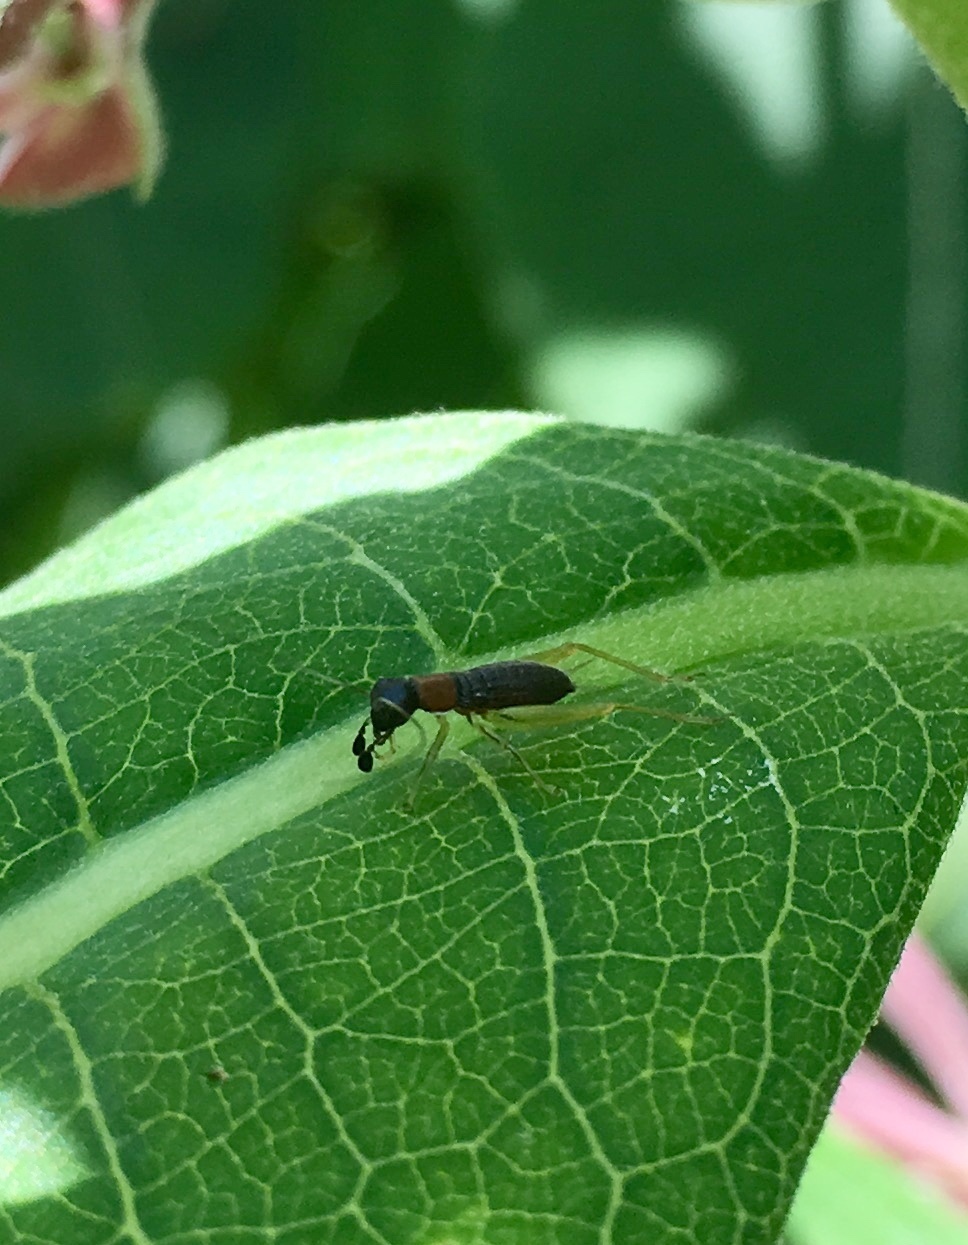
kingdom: Animalia
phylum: Arthropoda
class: Insecta
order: Orthoptera
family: Trigonidiidae
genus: Phyllopalpus
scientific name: Phyllopalpus pulchellus
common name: Handsome trig
